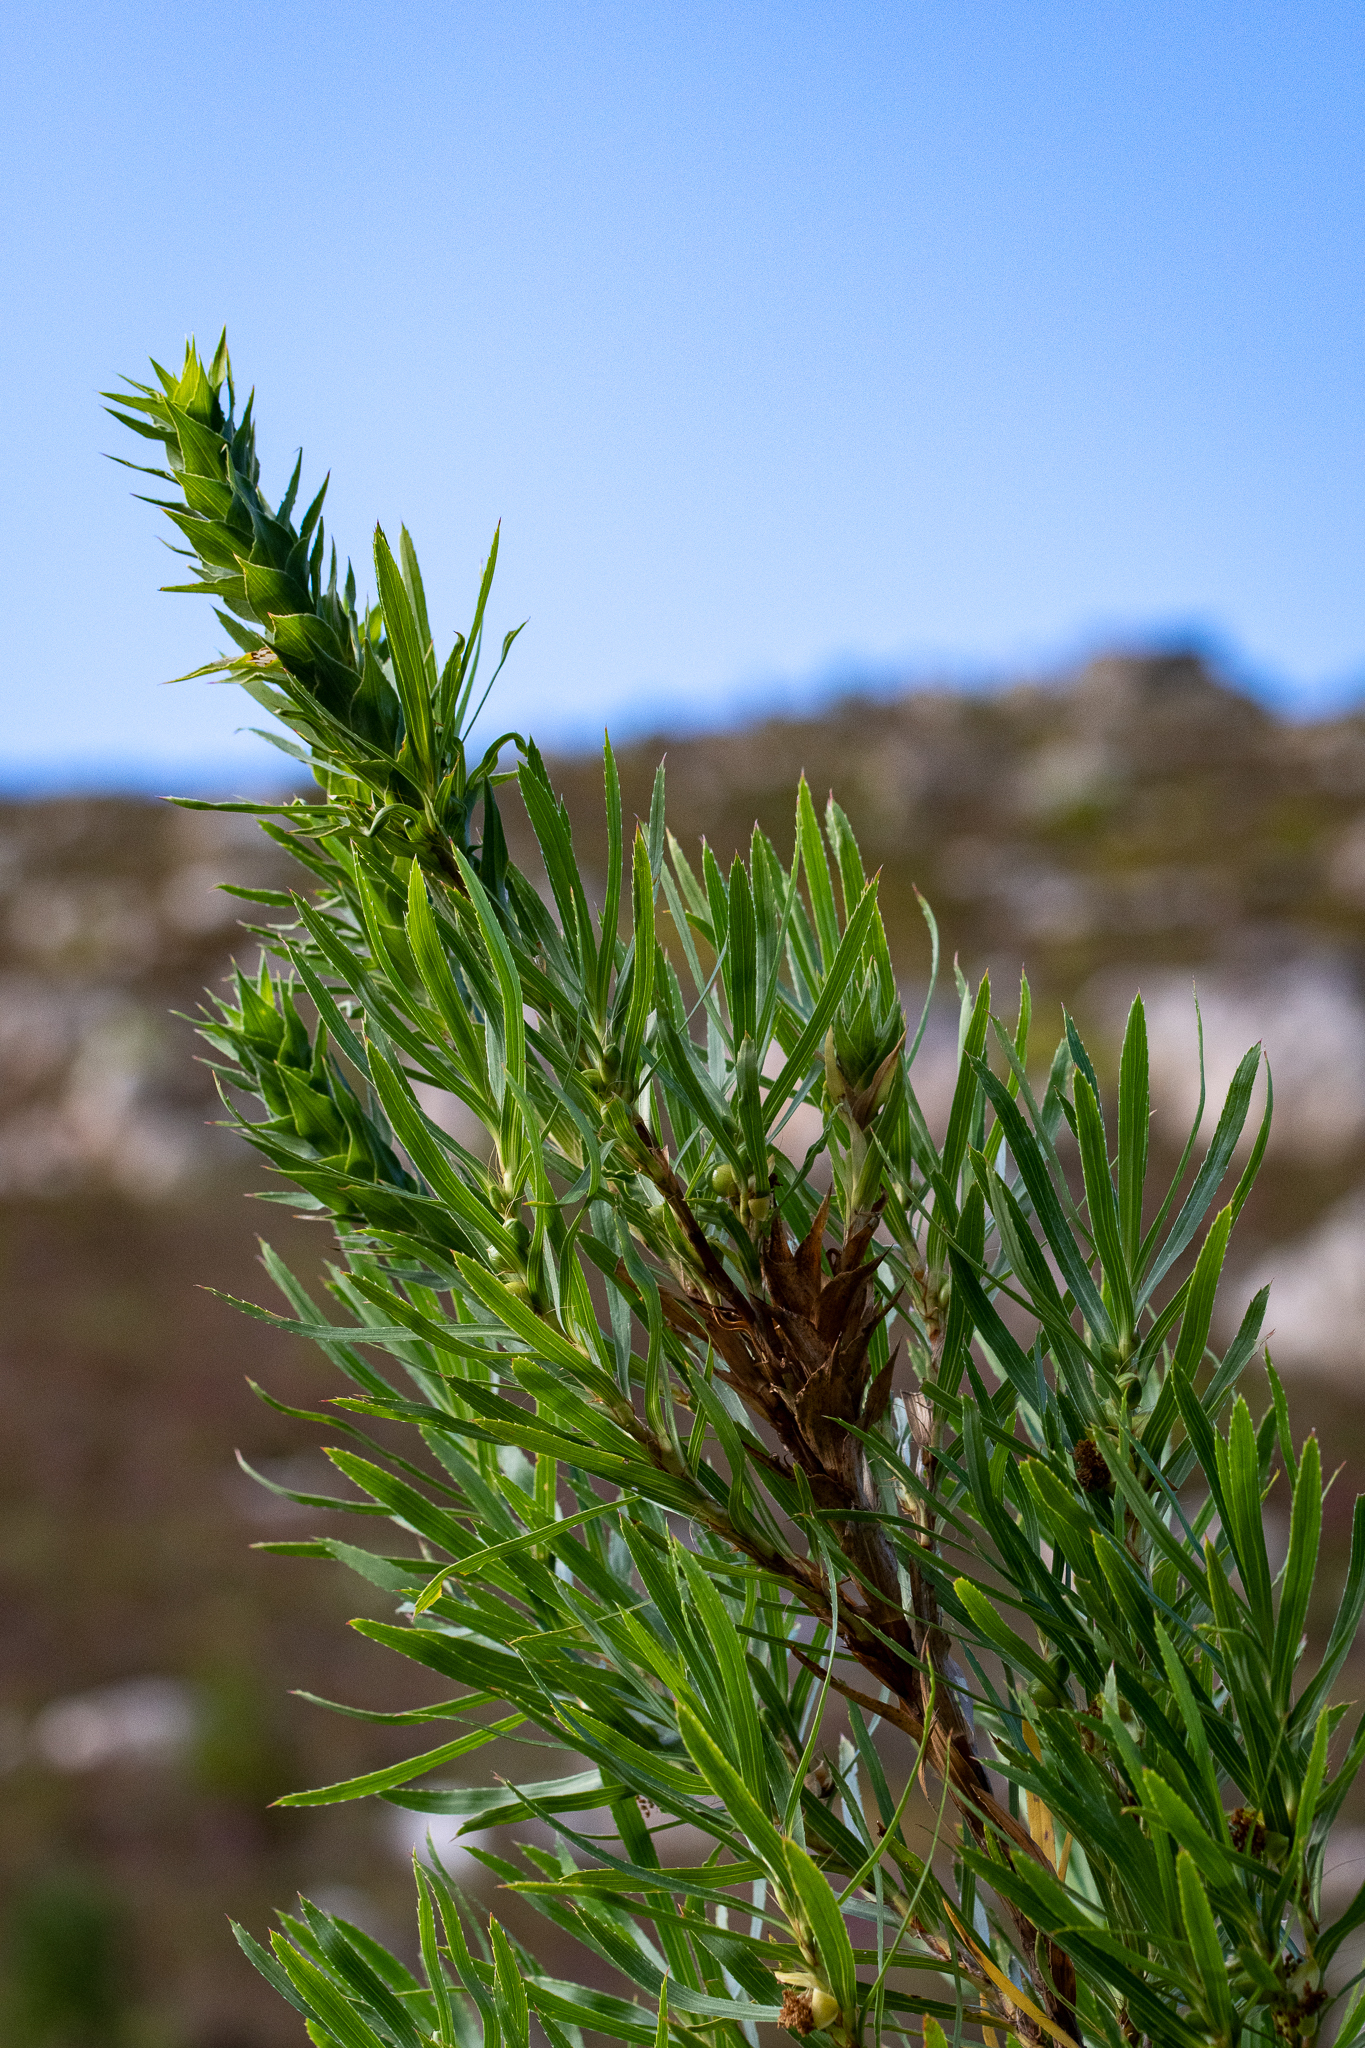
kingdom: Plantae
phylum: Tracheophyta
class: Magnoliopsida
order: Rosales
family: Rosaceae
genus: Cliffortia
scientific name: Cliffortia heterophylla
